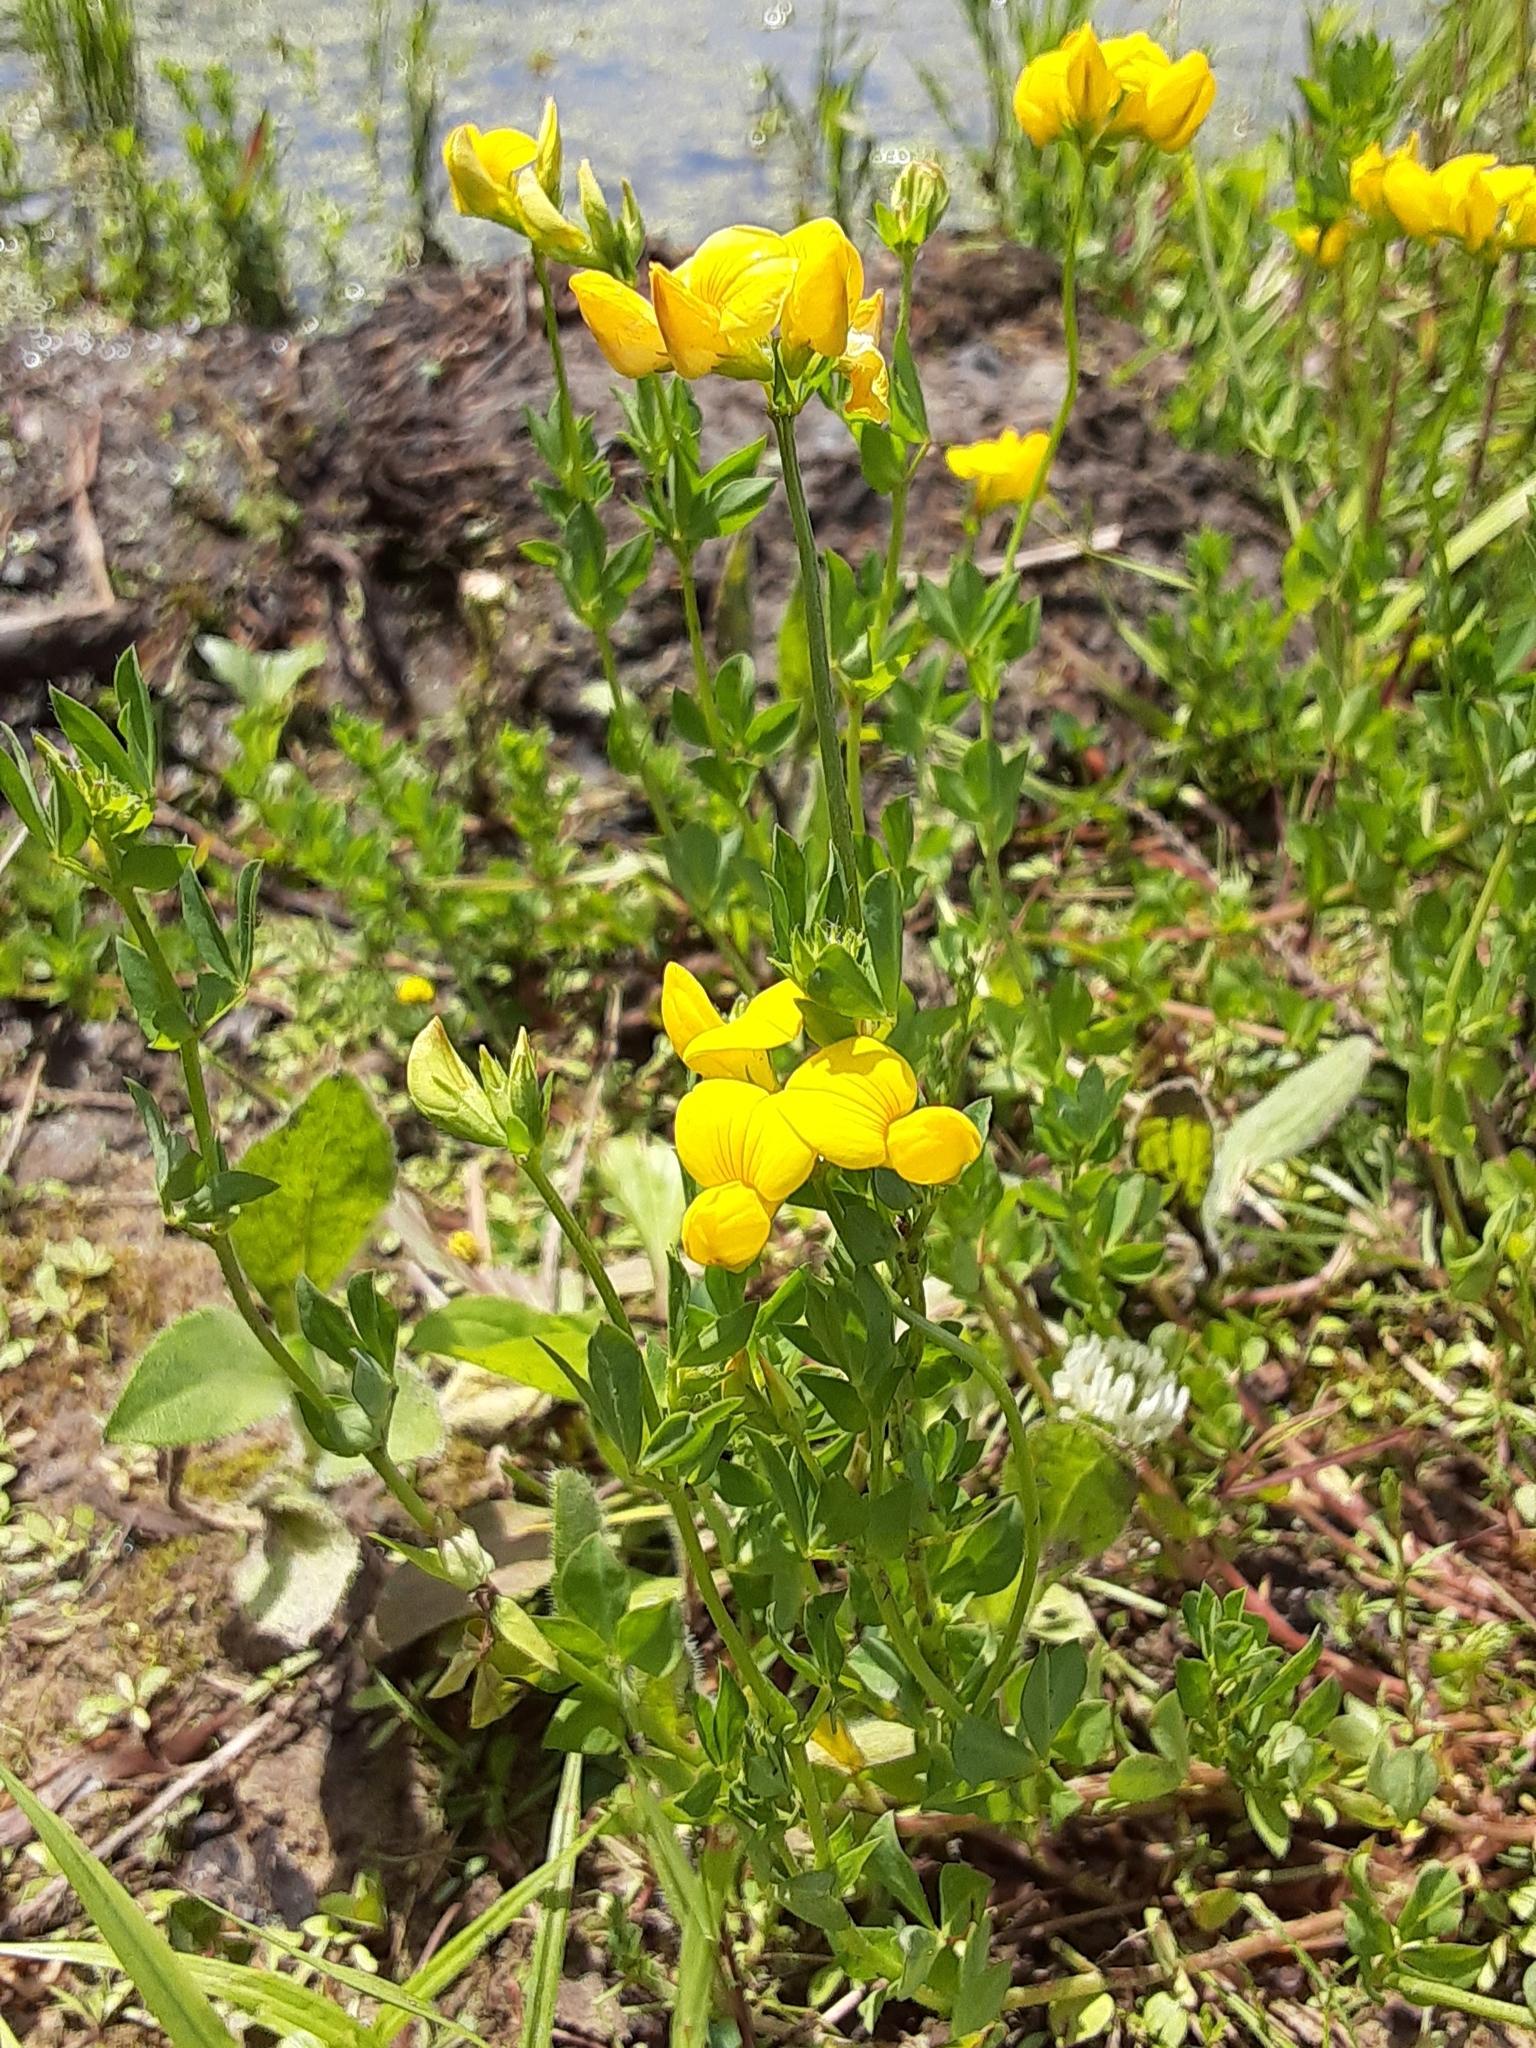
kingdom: Plantae
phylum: Tracheophyta
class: Magnoliopsida
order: Fabales
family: Fabaceae
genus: Lotus
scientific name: Lotus corniculatus
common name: Common bird's-foot-trefoil
